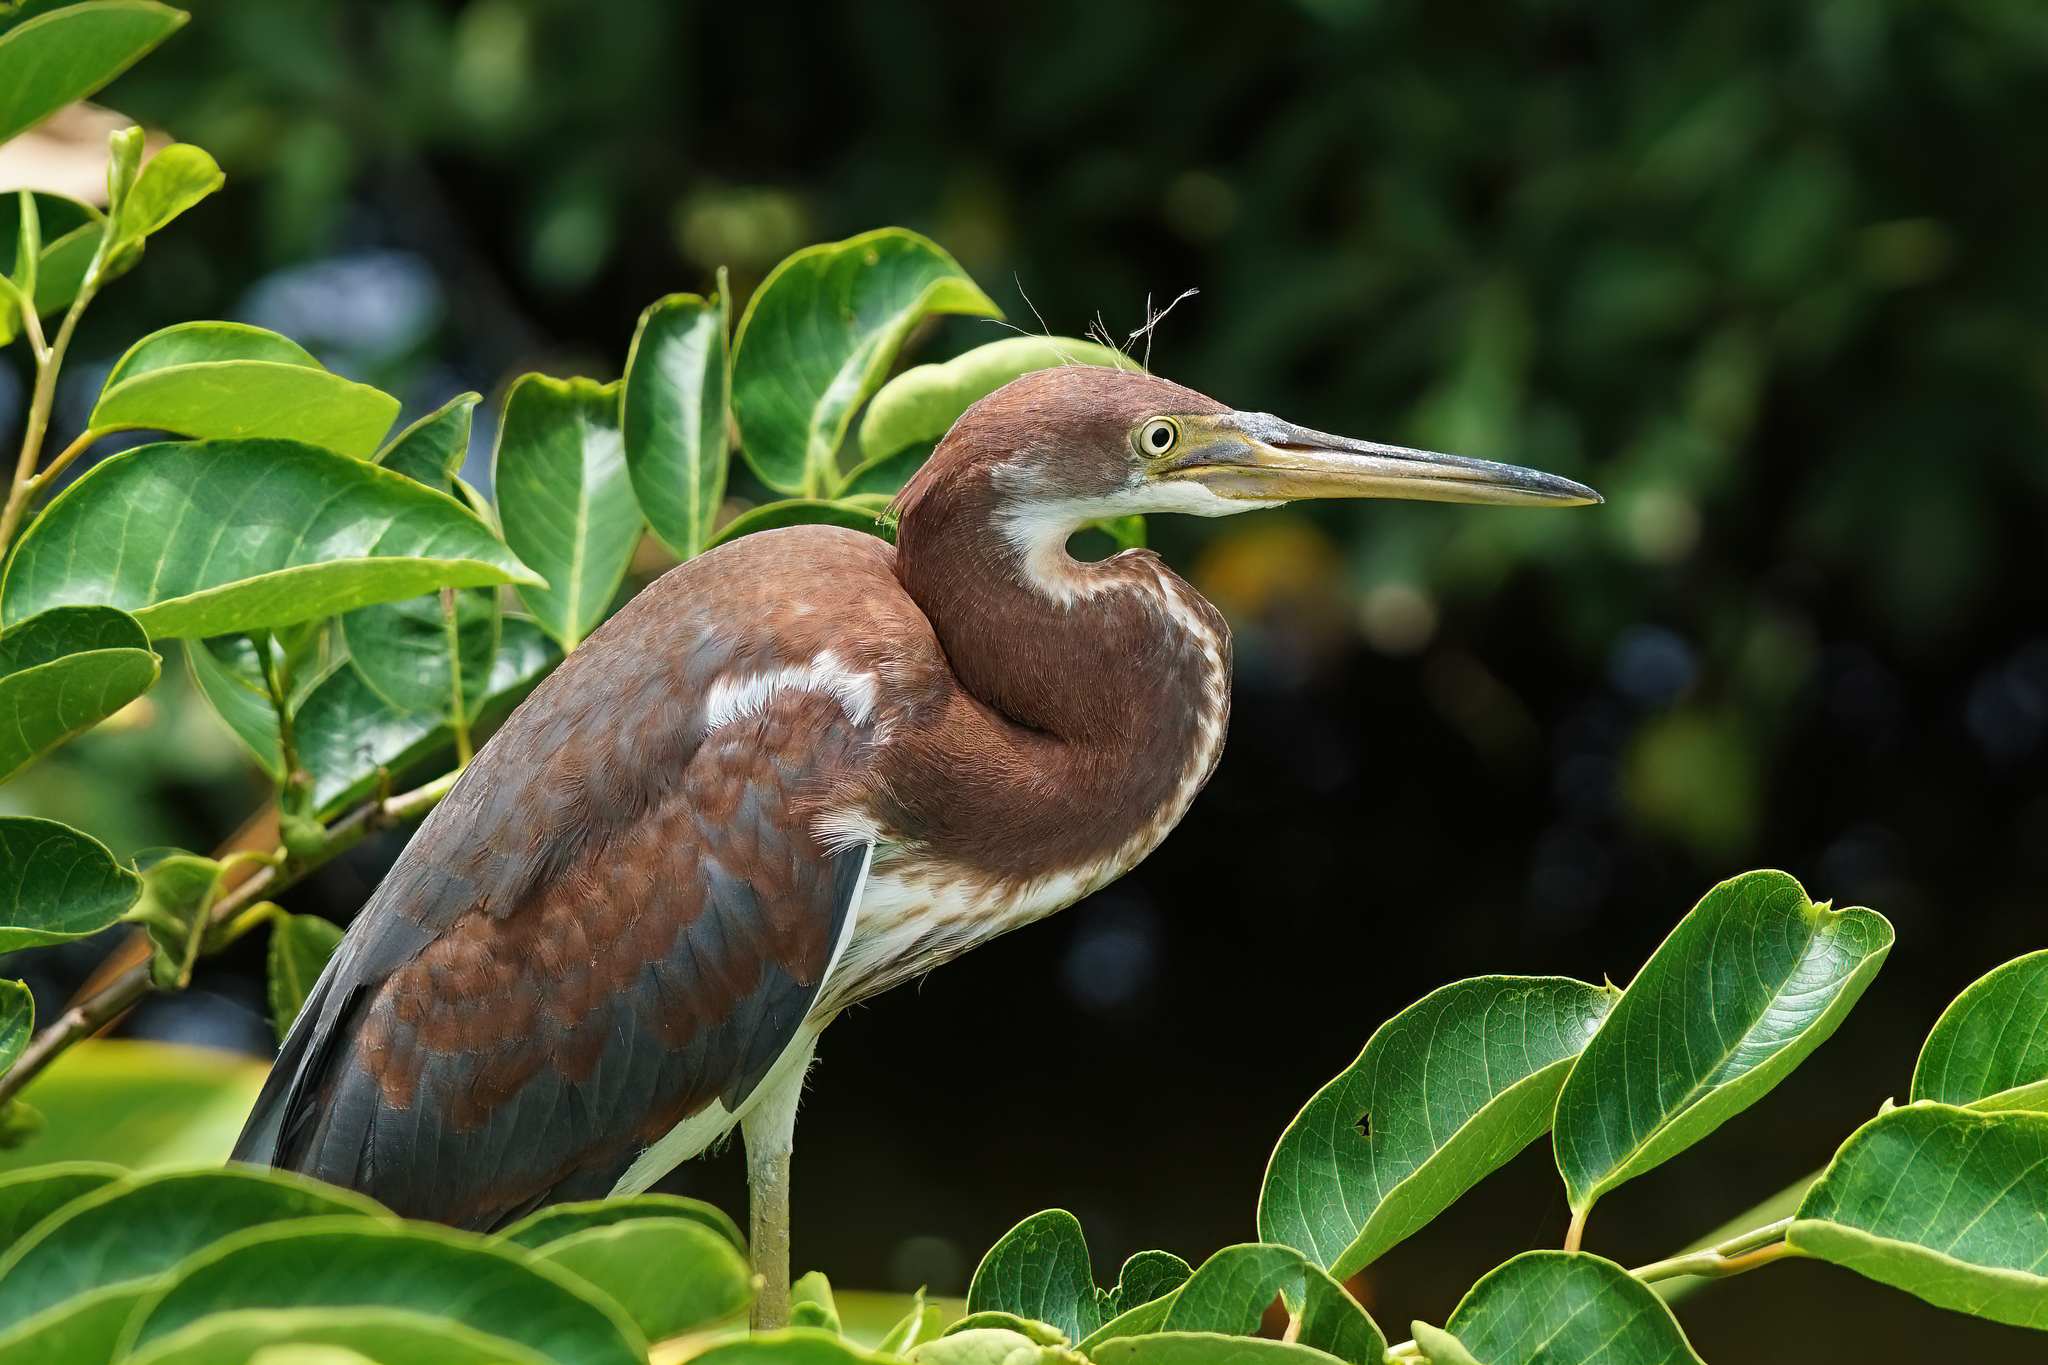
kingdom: Animalia
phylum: Chordata
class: Aves
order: Pelecaniformes
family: Ardeidae
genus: Egretta
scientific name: Egretta tricolor
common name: Tricolored heron
